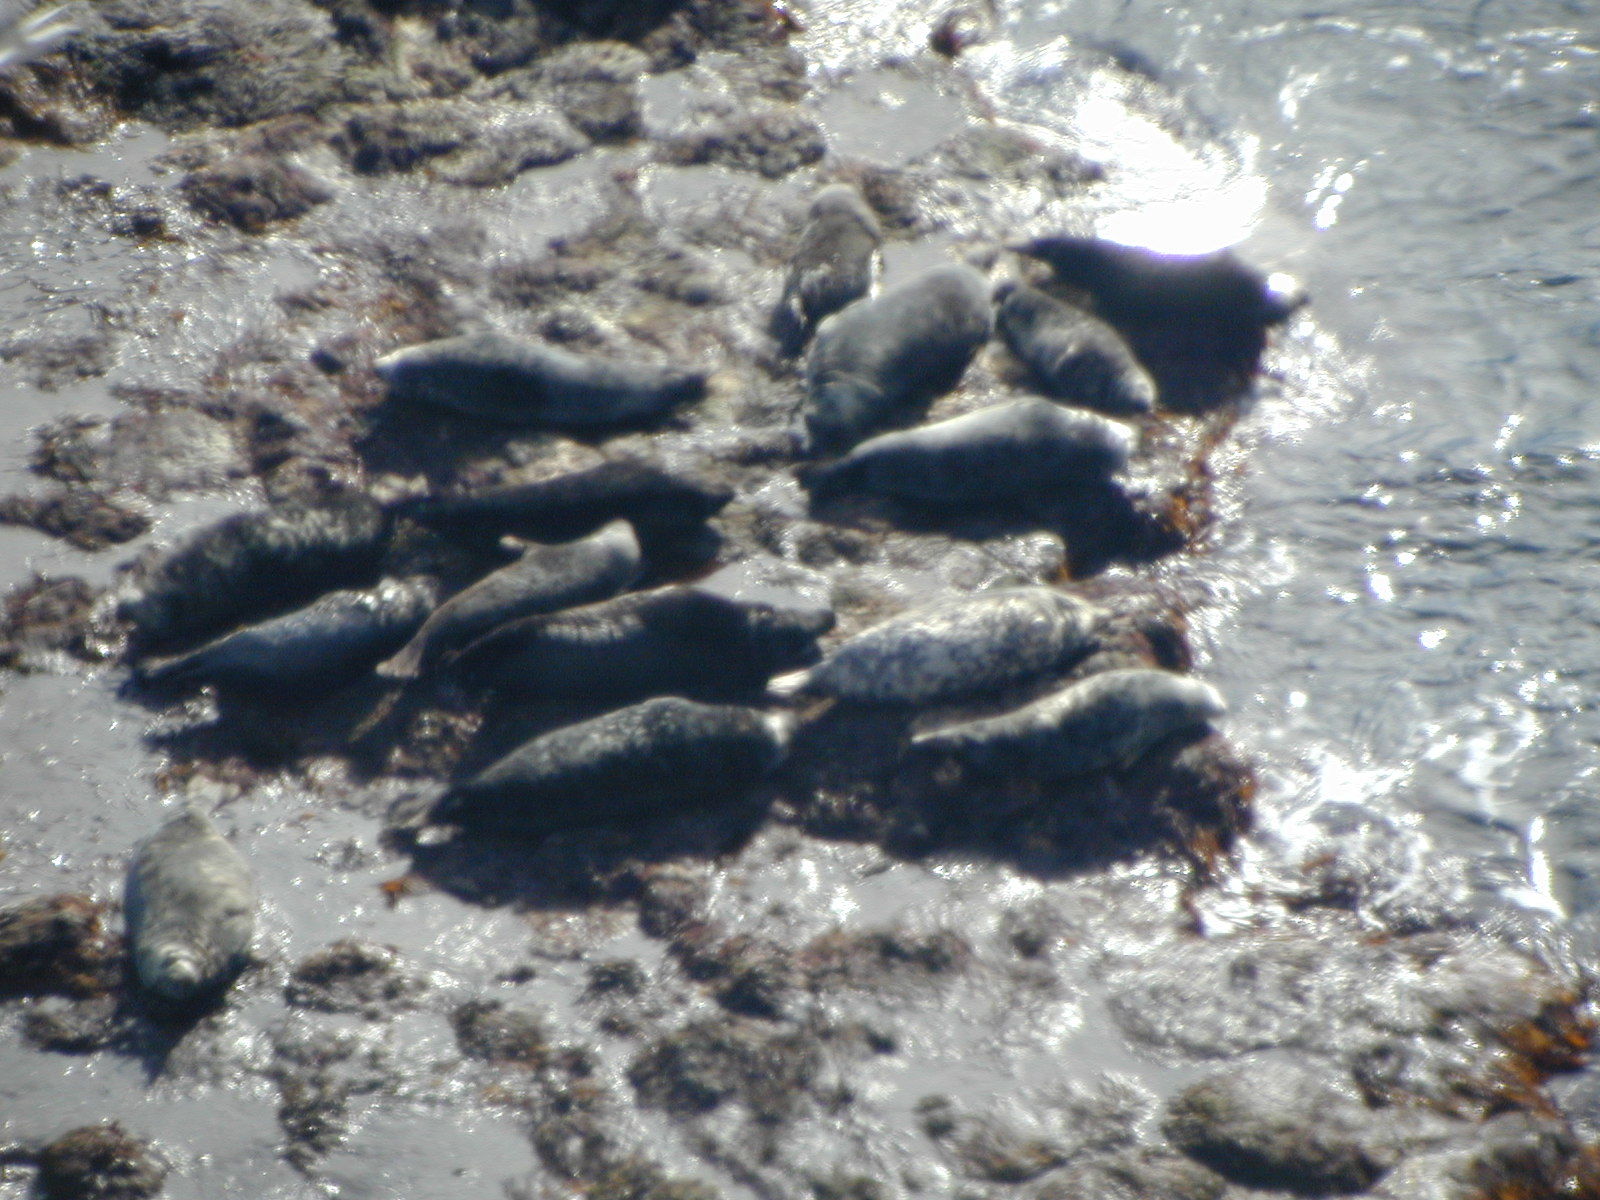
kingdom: Animalia
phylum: Chordata
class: Mammalia
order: Carnivora
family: Phocidae
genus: Phoca
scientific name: Phoca vitulina
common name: Harbor seal
